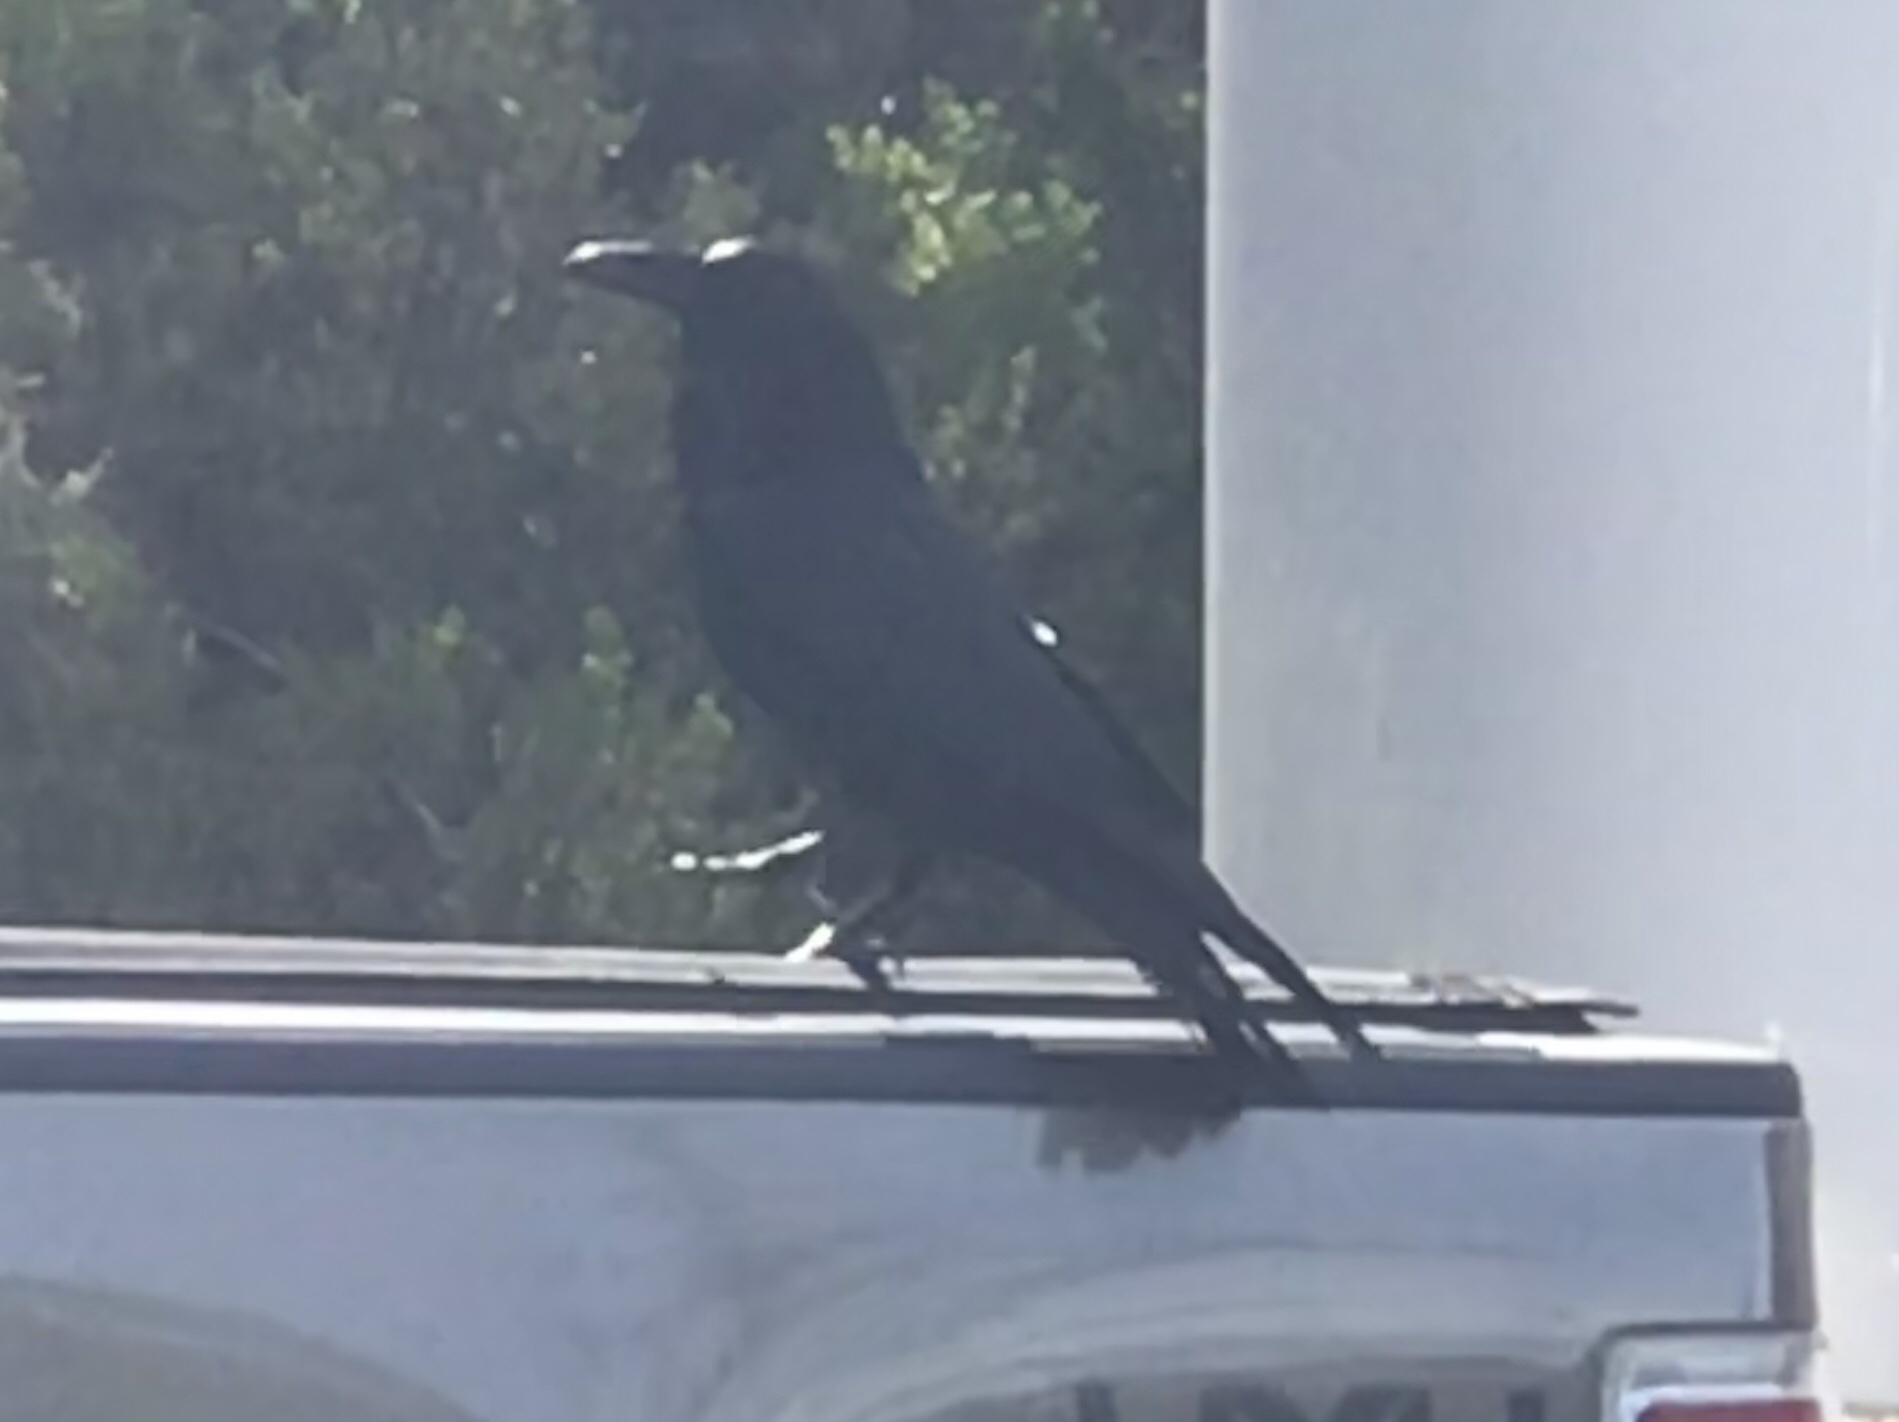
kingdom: Animalia
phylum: Chordata
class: Aves
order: Passeriformes
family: Corvidae
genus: Corvus
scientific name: Corvus corax
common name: Common raven
